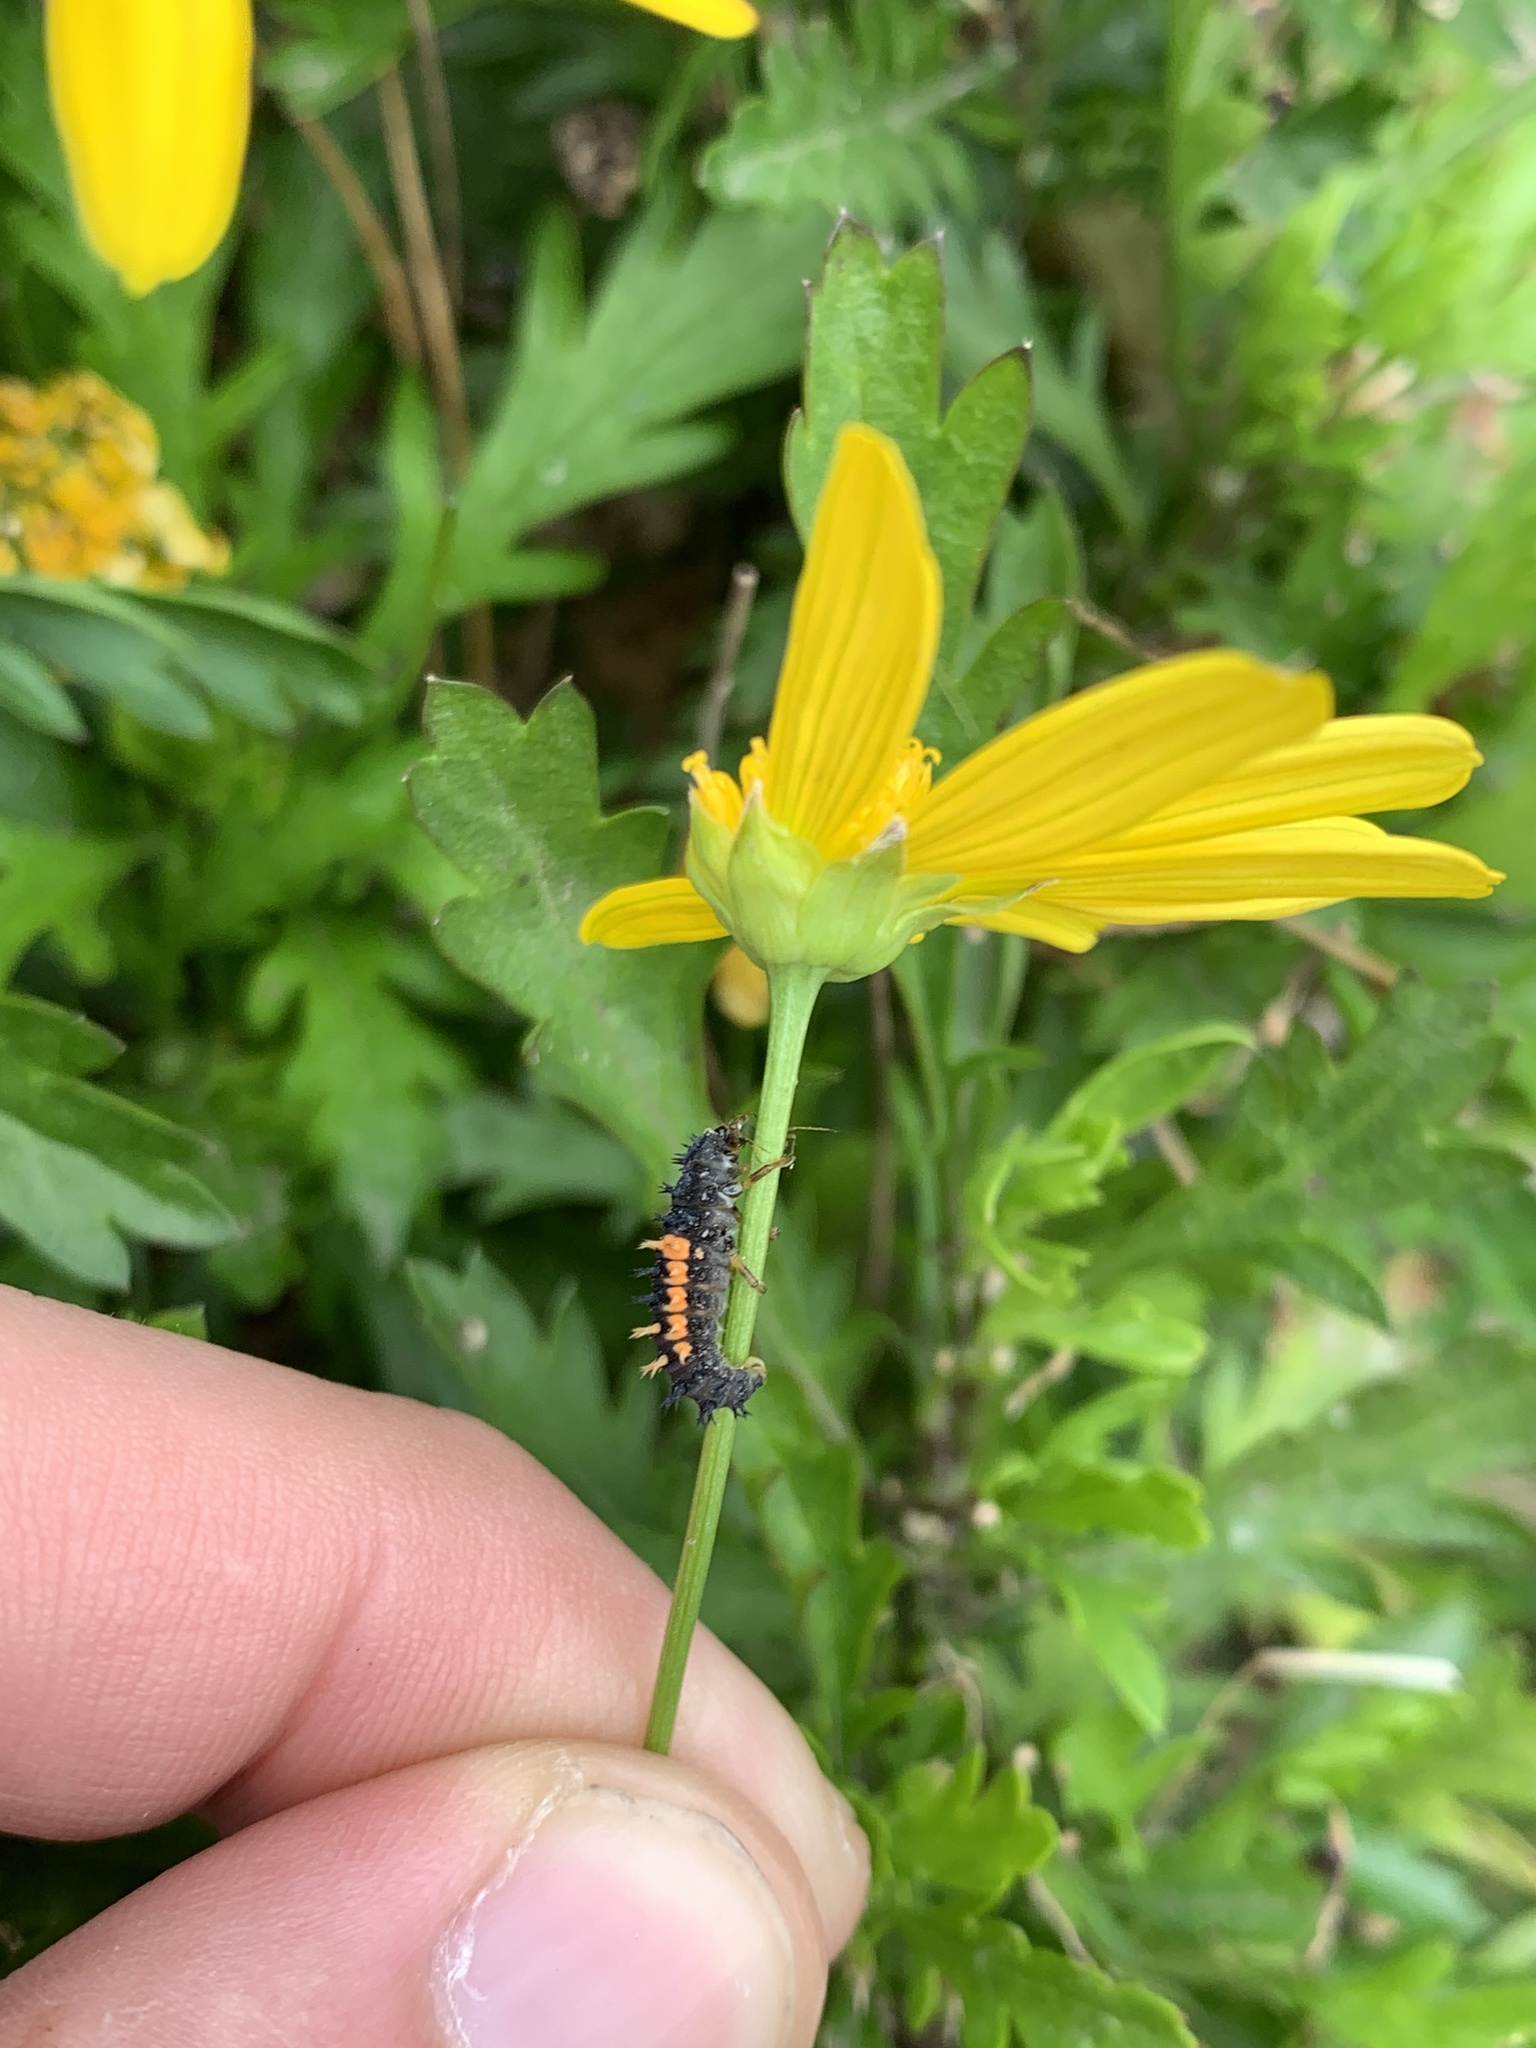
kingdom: Animalia
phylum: Arthropoda
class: Insecta
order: Coleoptera
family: Coccinellidae
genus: Harmonia
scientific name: Harmonia axyridis
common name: Harlequin ladybird
